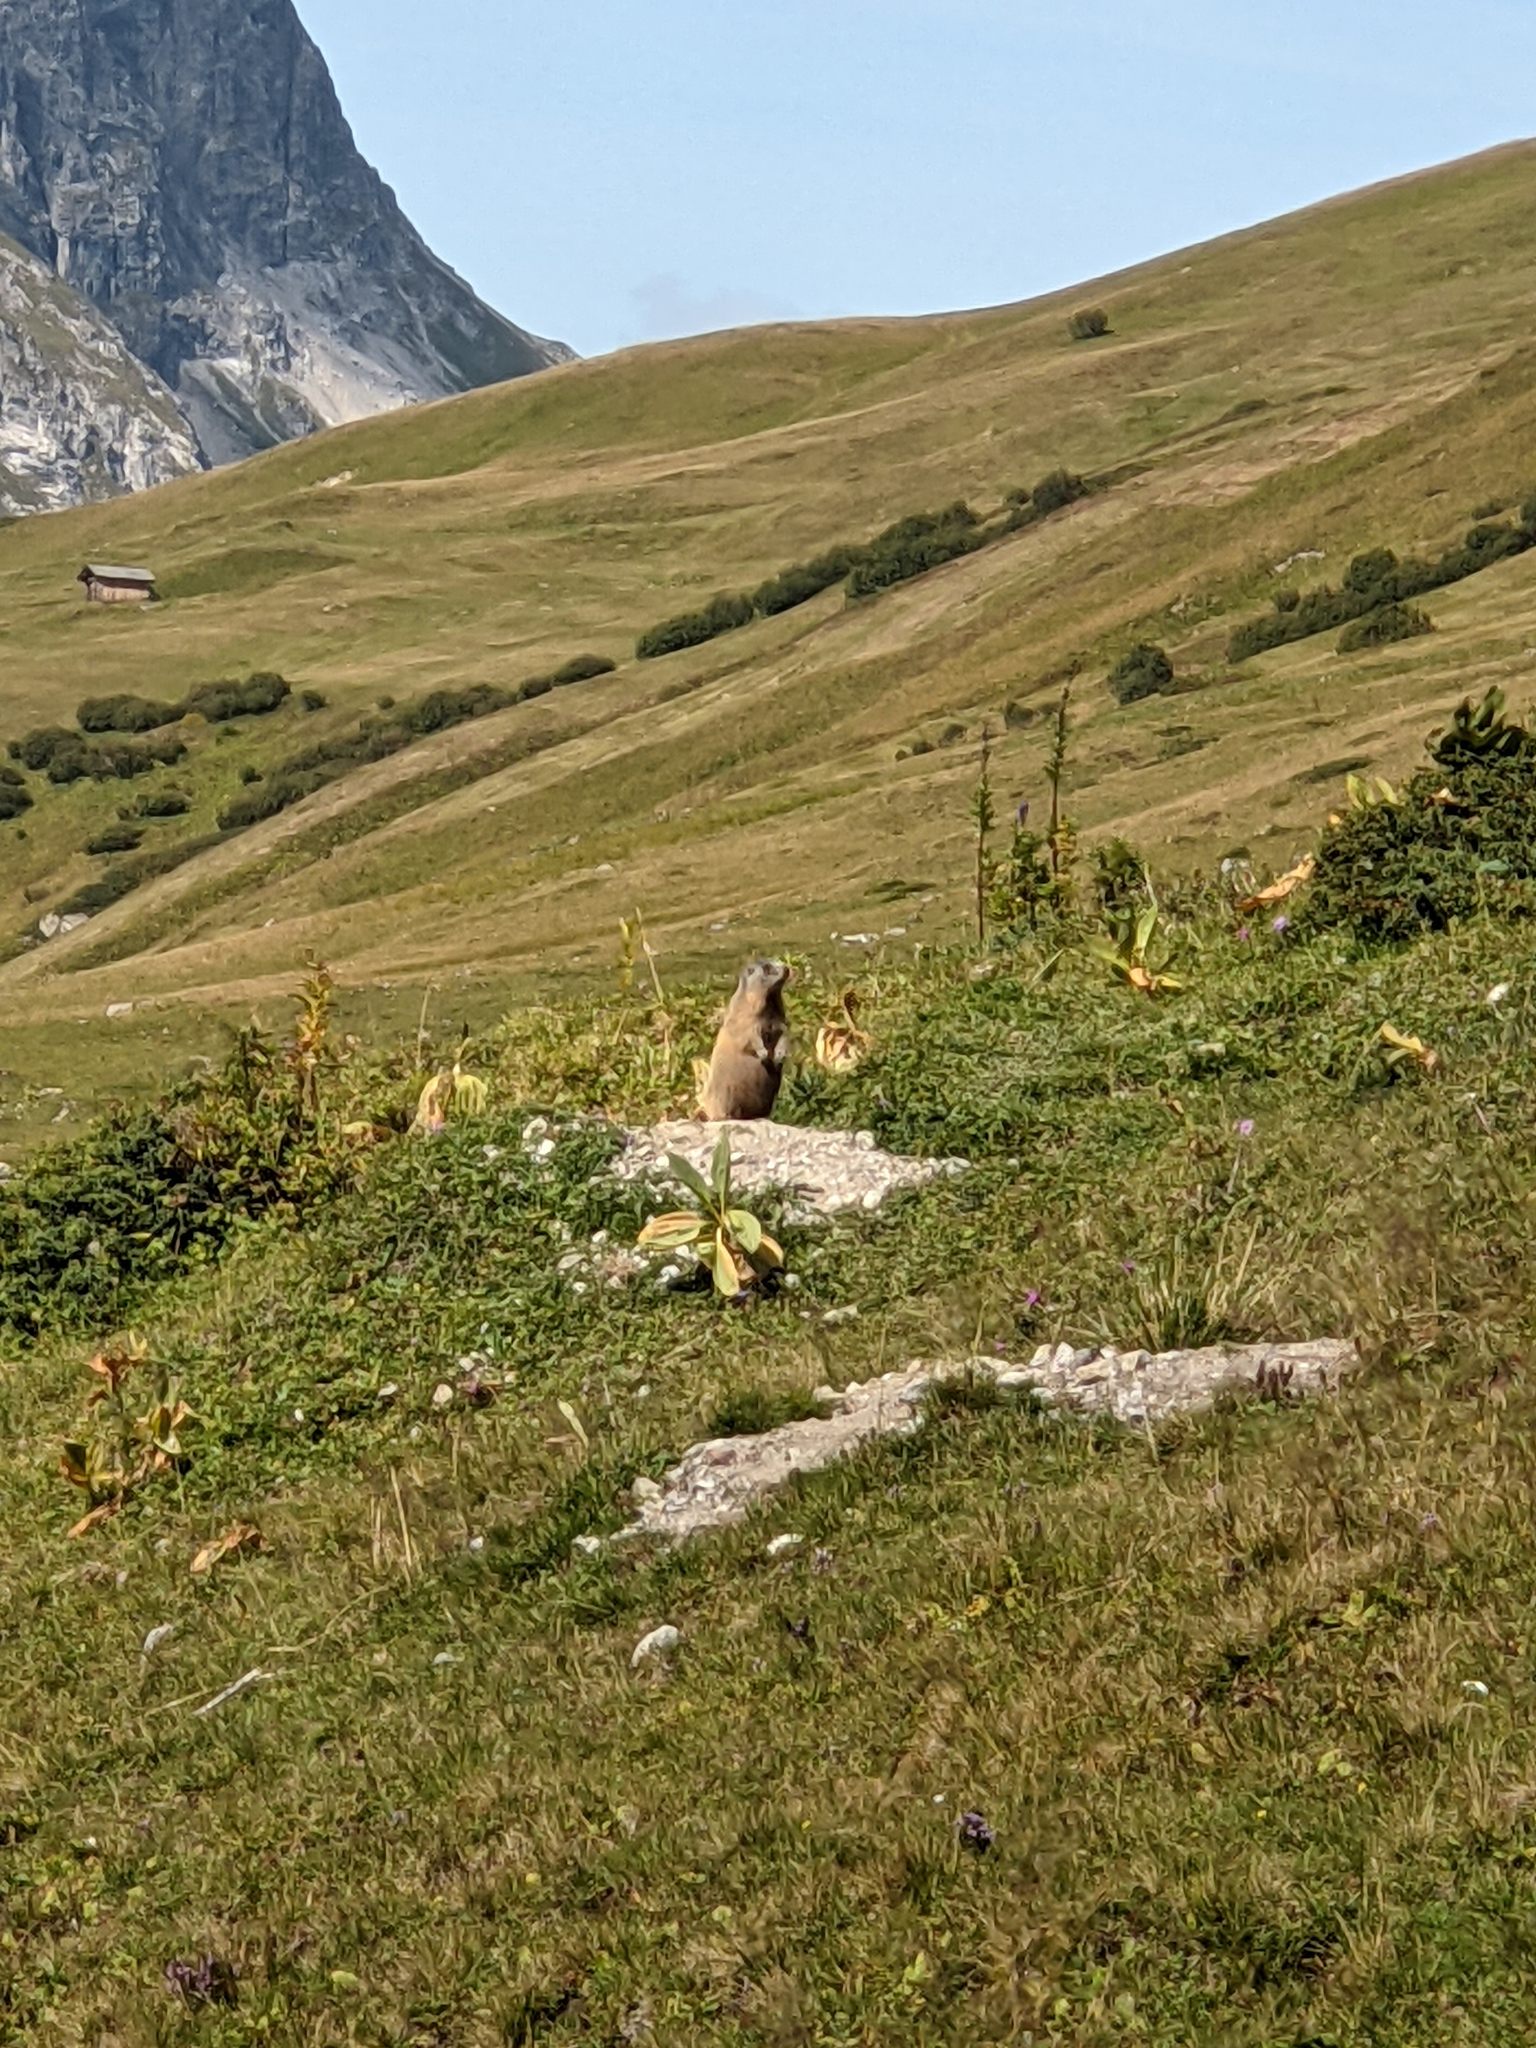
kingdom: Animalia
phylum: Chordata
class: Mammalia
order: Rodentia
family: Sciuridae
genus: Marmota
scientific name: Marmota marmota
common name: Alpine marmot
